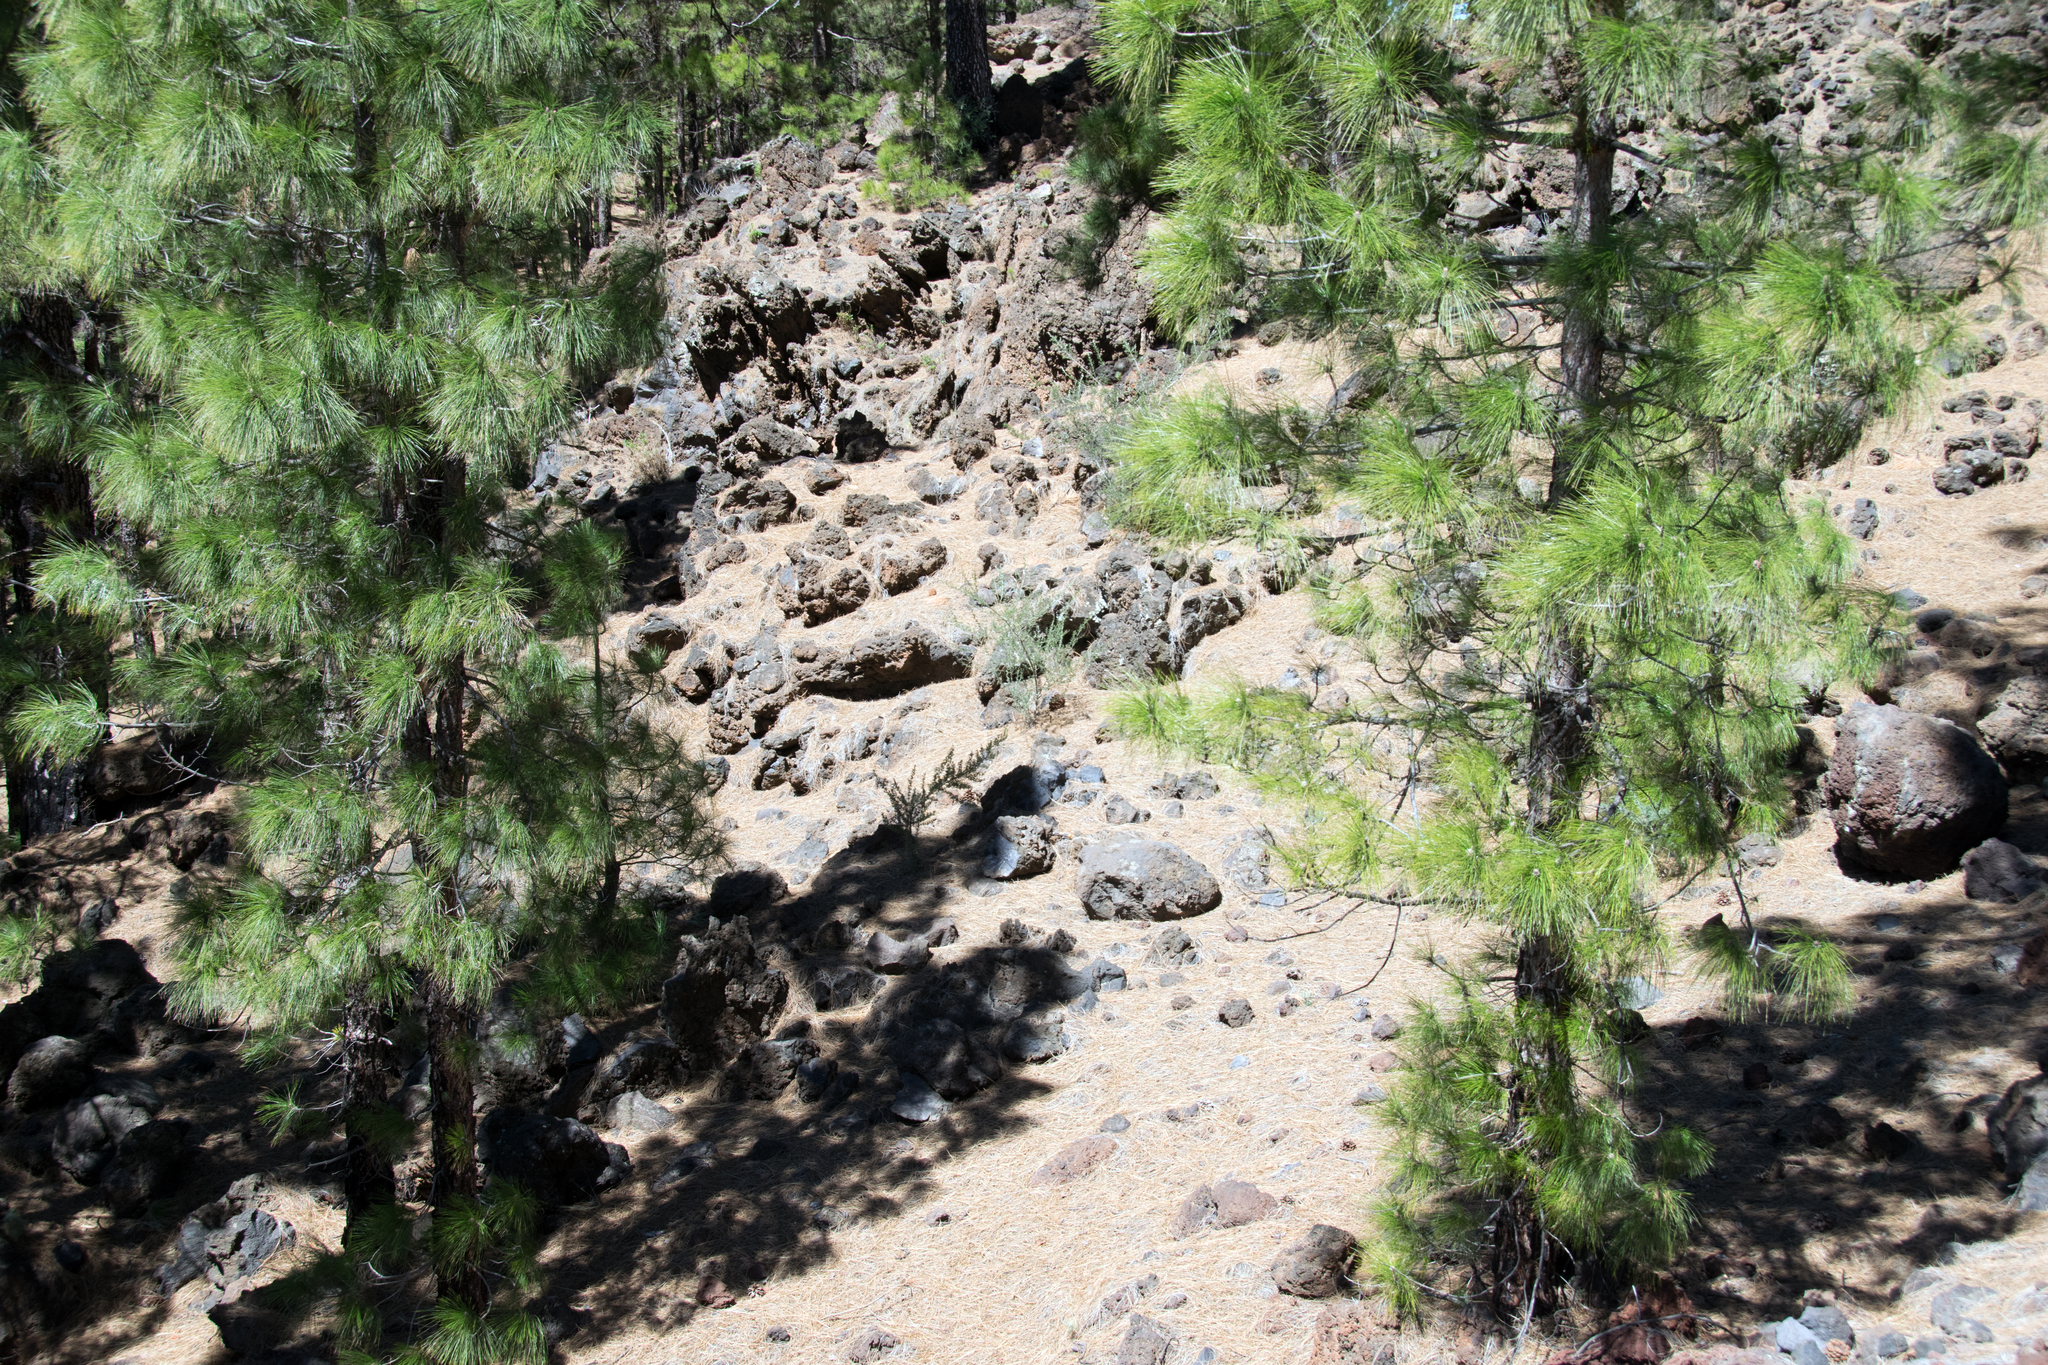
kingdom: Plantae
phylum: Tracheophyta
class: Pinopsida
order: Pinales
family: Pinaceae
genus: Pinus
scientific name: Pinus canariensis
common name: Canary islands pine
